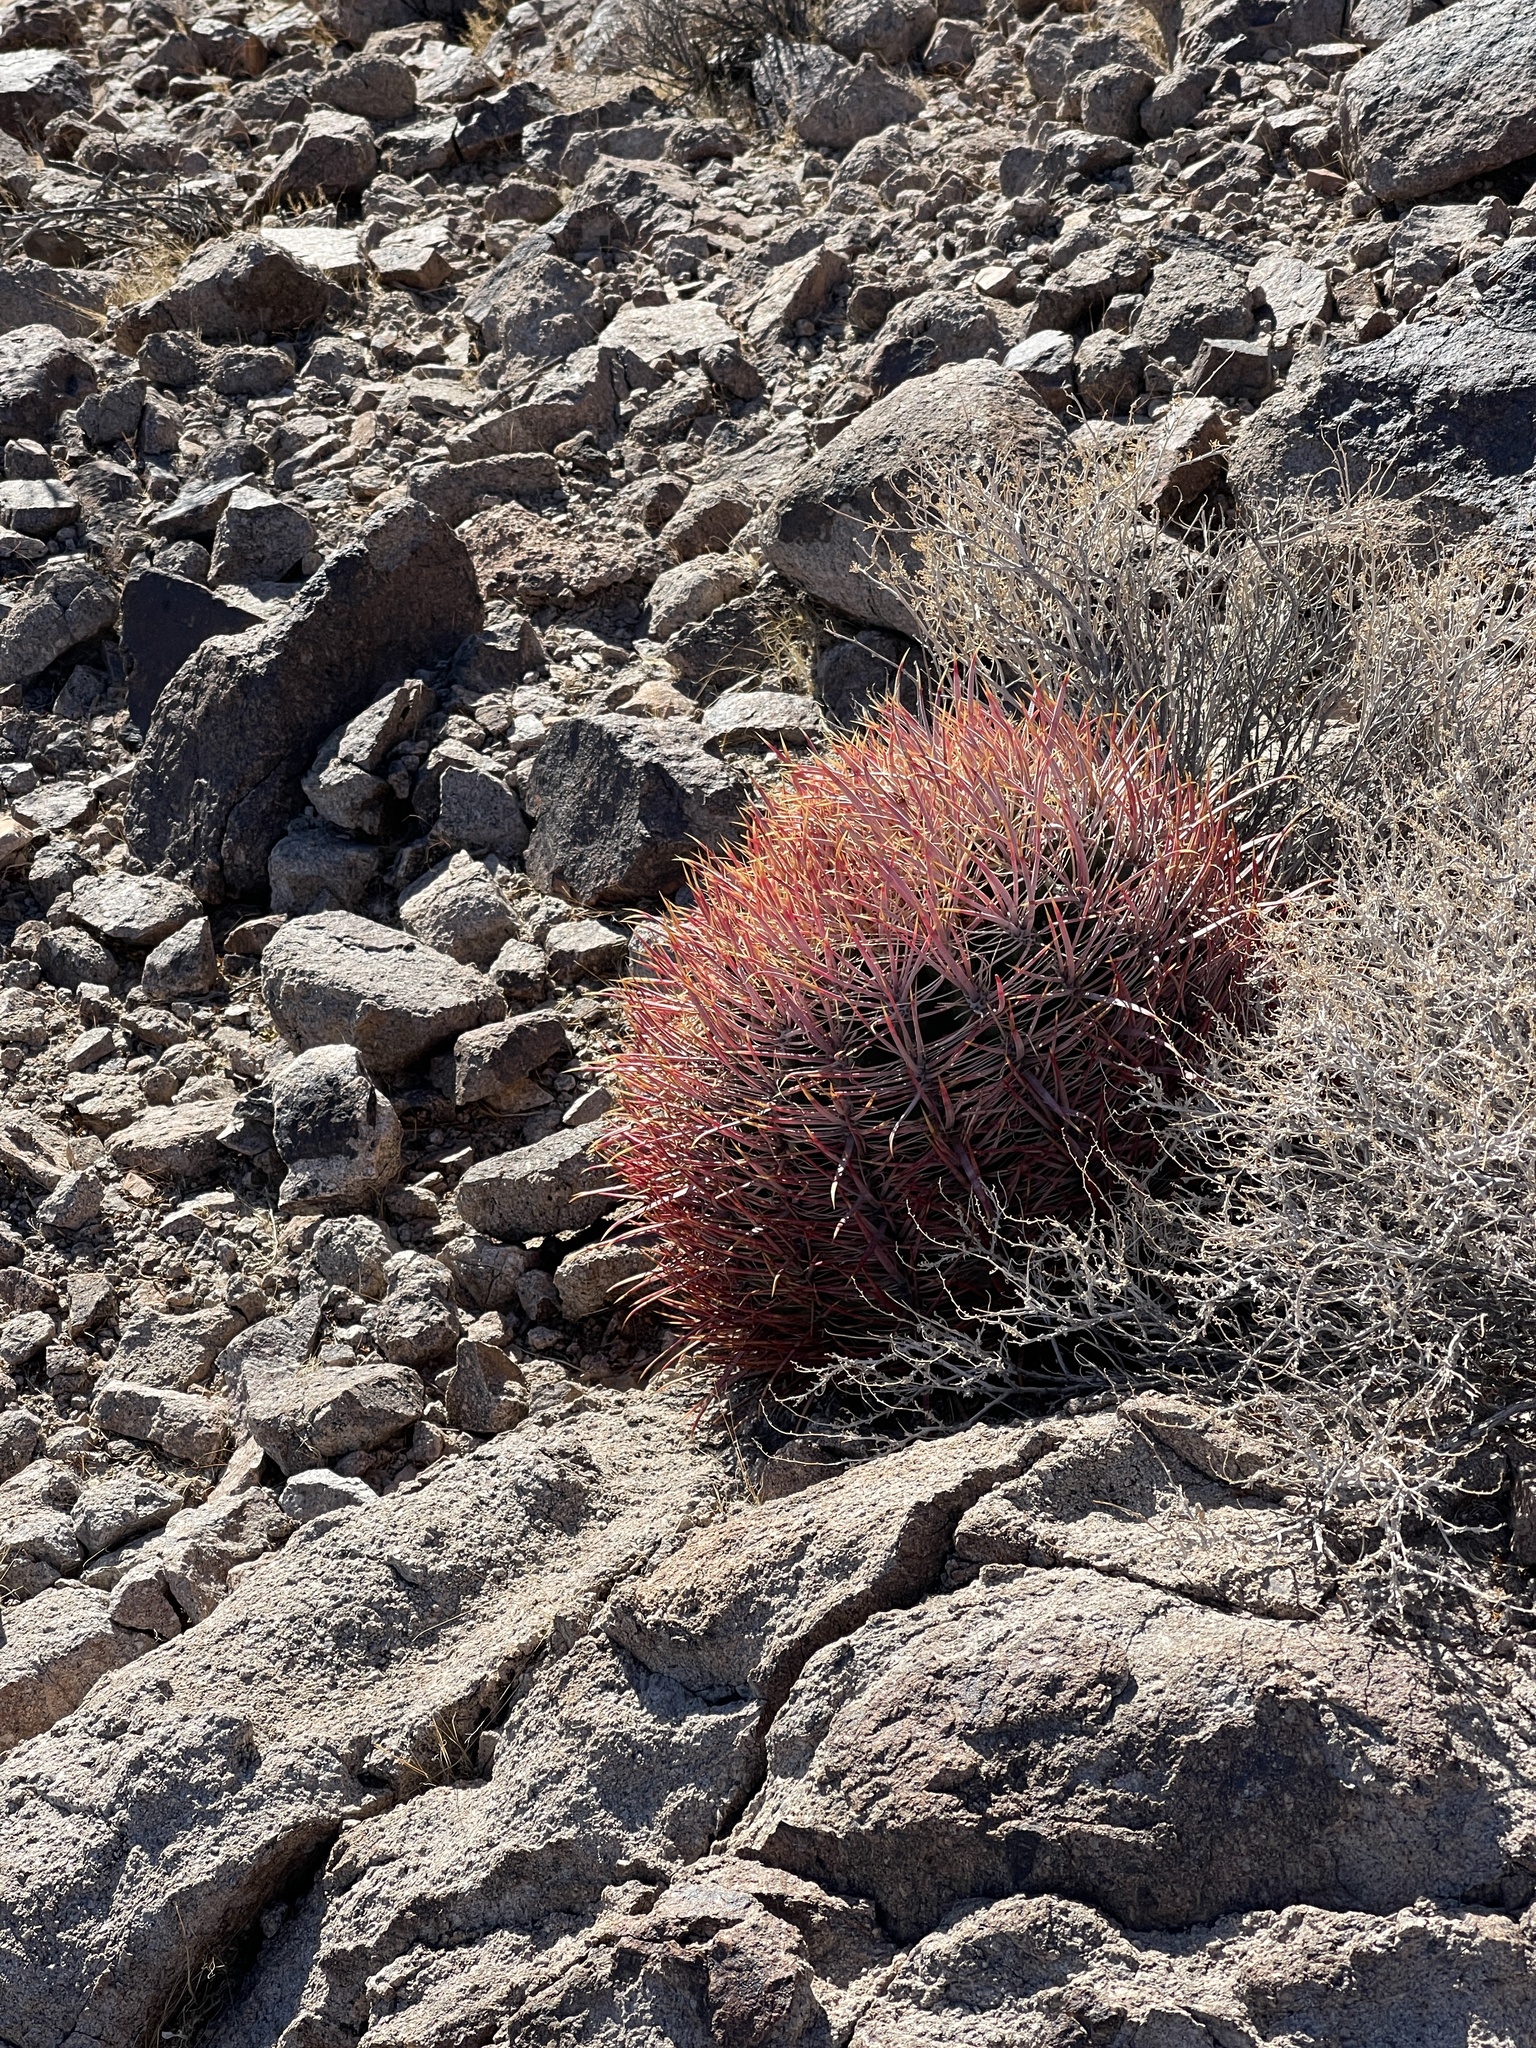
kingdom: Plantae
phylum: Tracheophyta
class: Magnoliopsida
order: Caryophyllales
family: Cactaceae
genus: Ferocactus
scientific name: Ferocactus cylindraceus
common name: California barrel cactus
